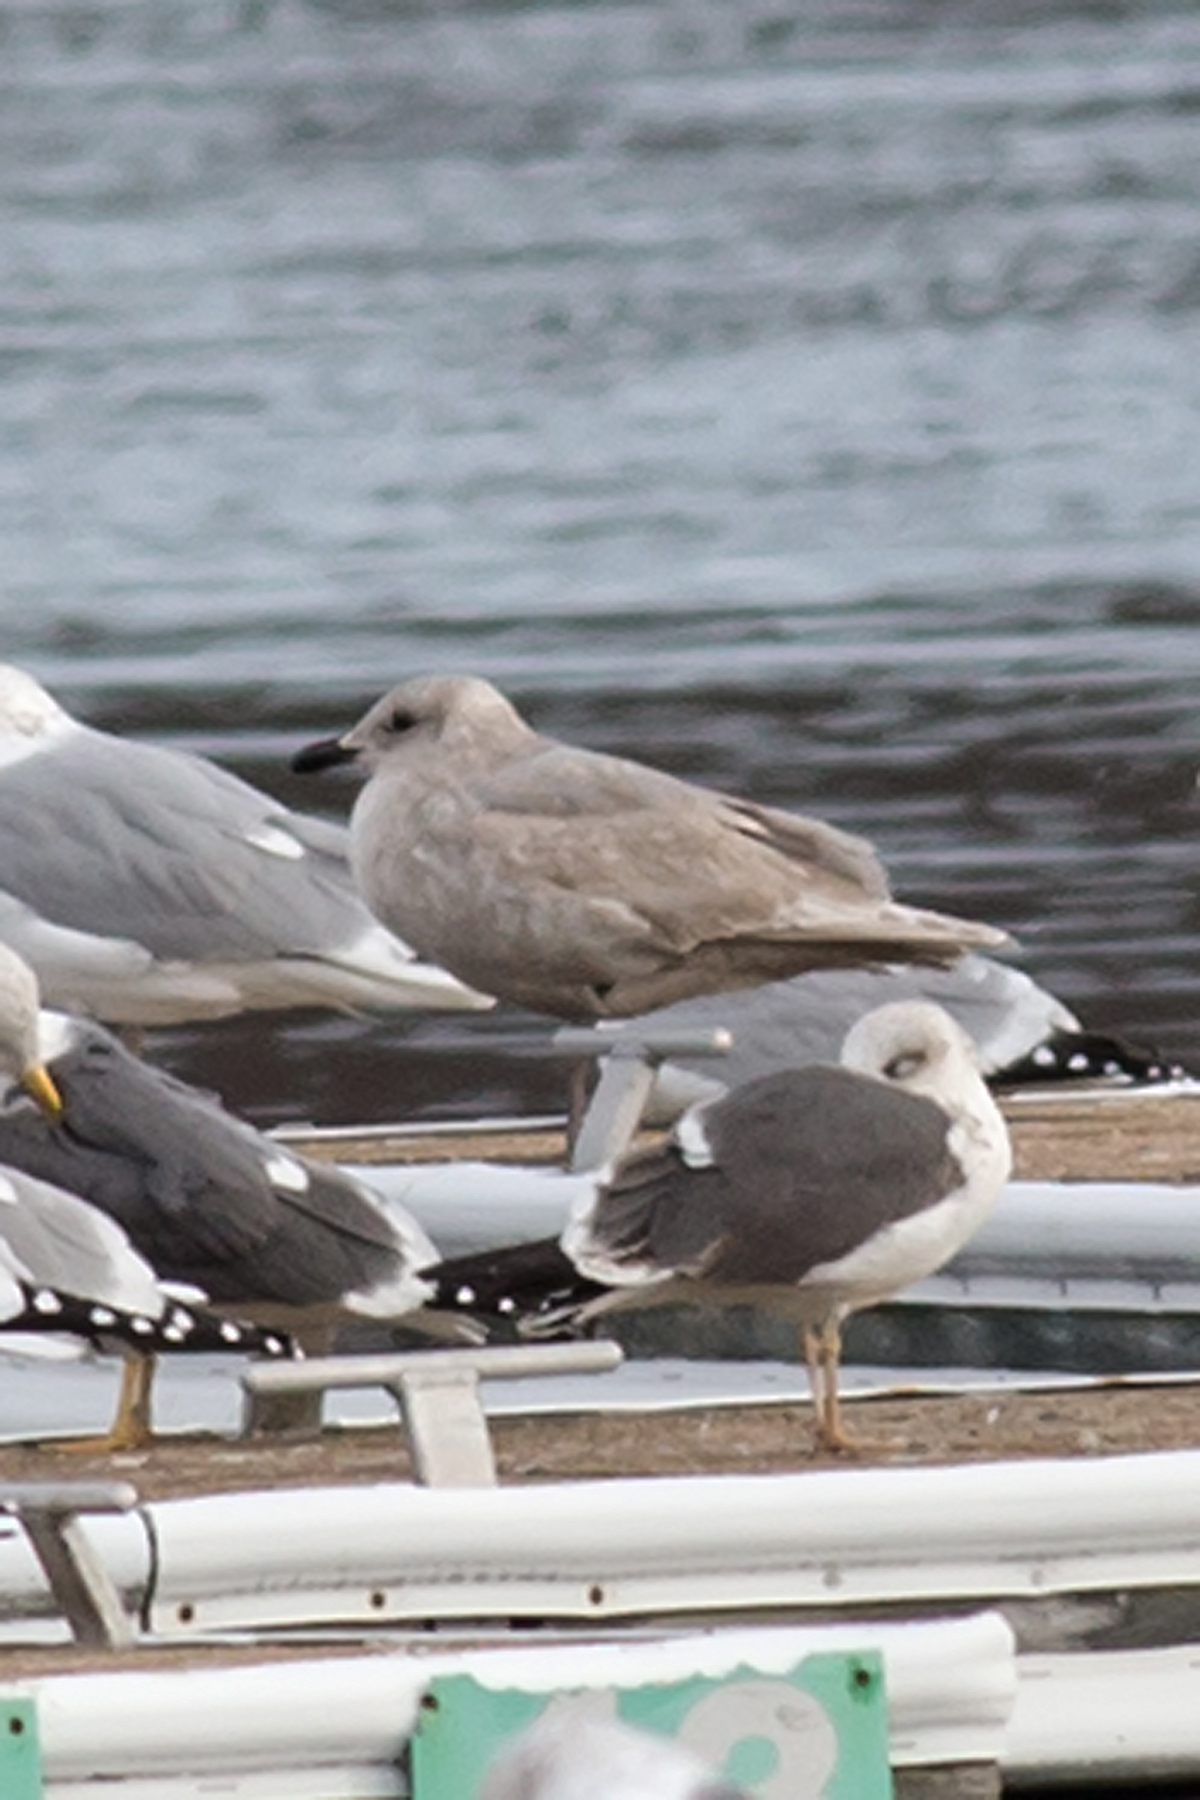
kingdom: Animalia
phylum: Chordata
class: Aves
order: Charadriiformes
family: Laridae
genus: Larus
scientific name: Larus glaucescens
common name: Glaucous-winged gull
